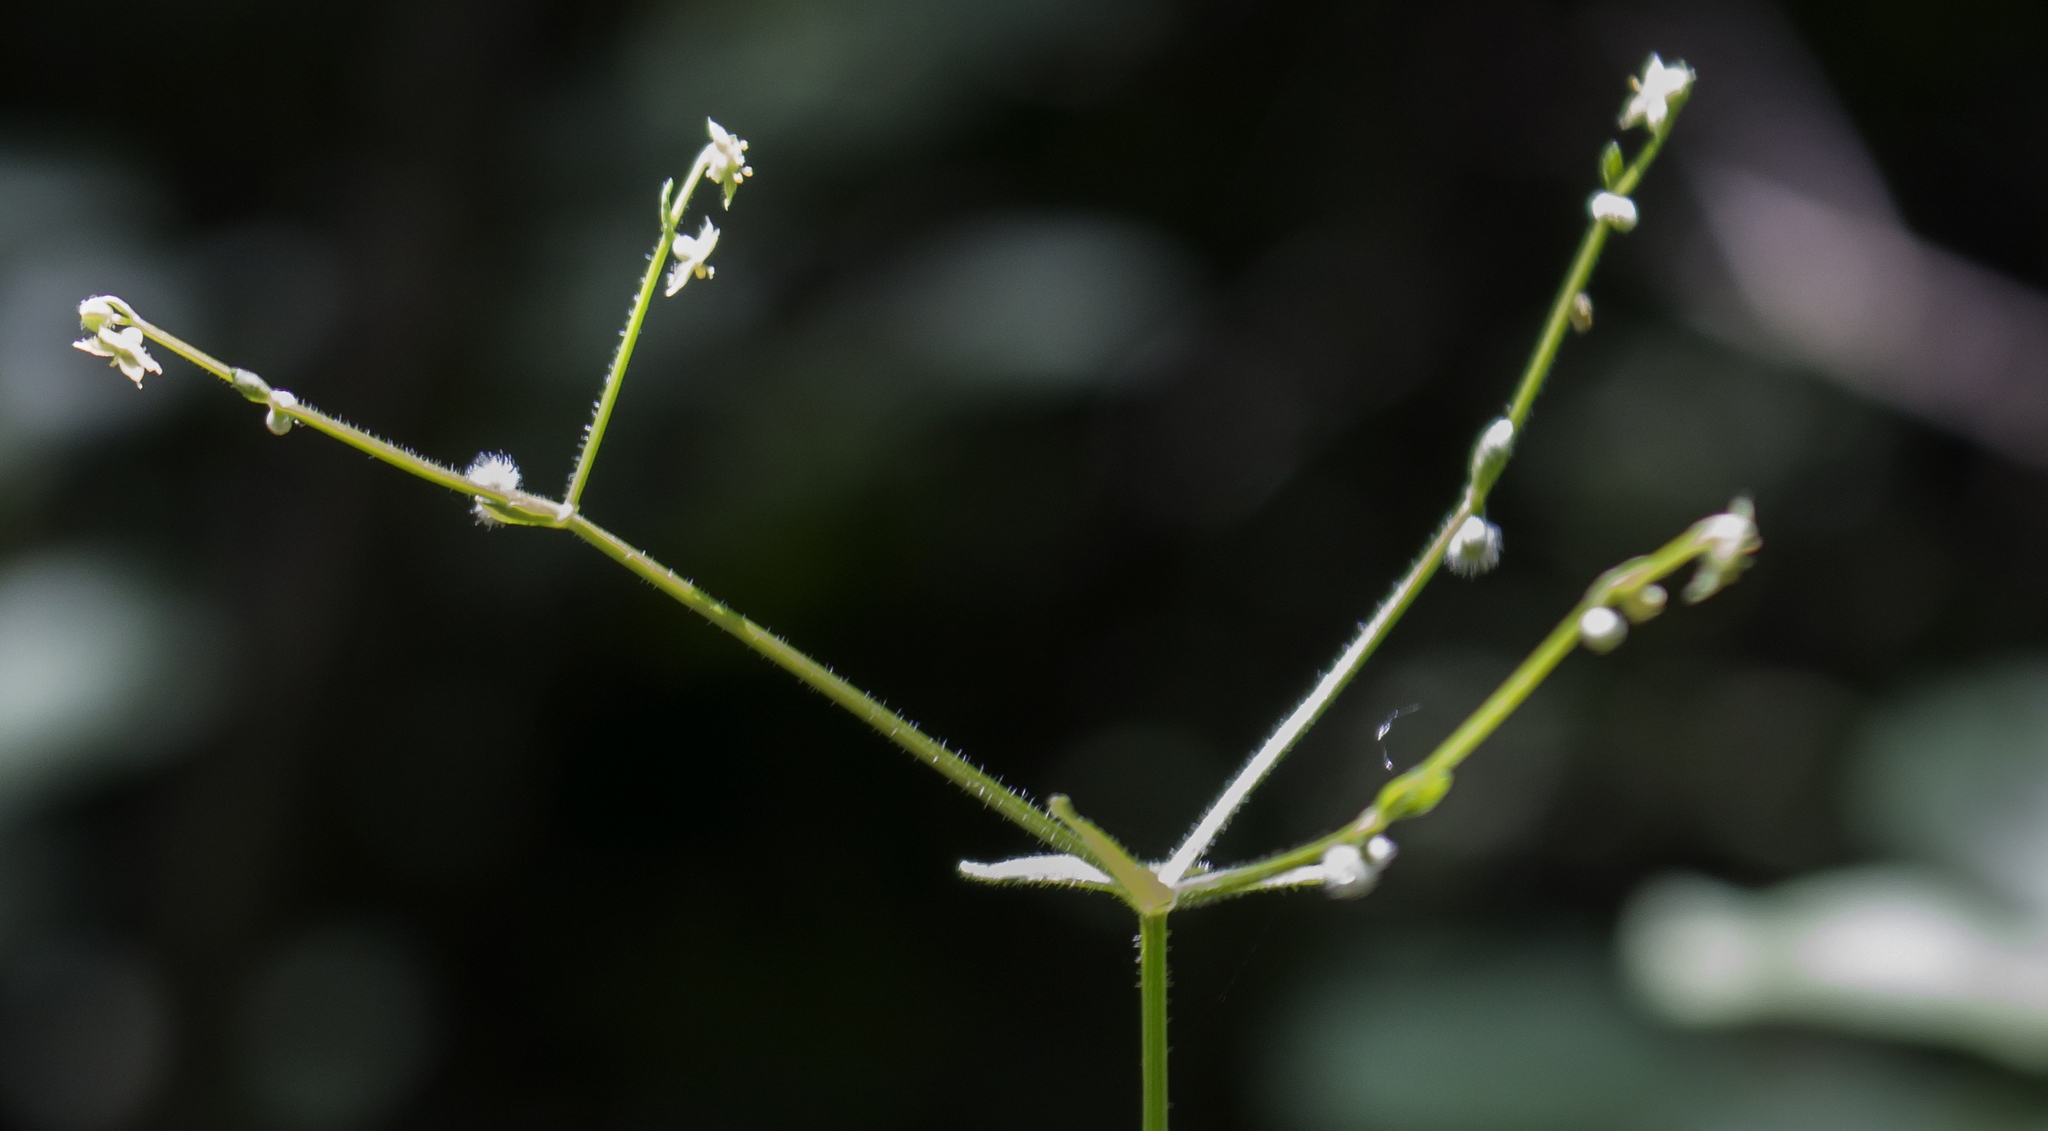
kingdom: Plantae
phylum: Tracheophyta
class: Magnoliopsida
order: Gentianales
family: Rubiaceae
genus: Galium
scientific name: Galium circaezans
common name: Forest bedstraw
